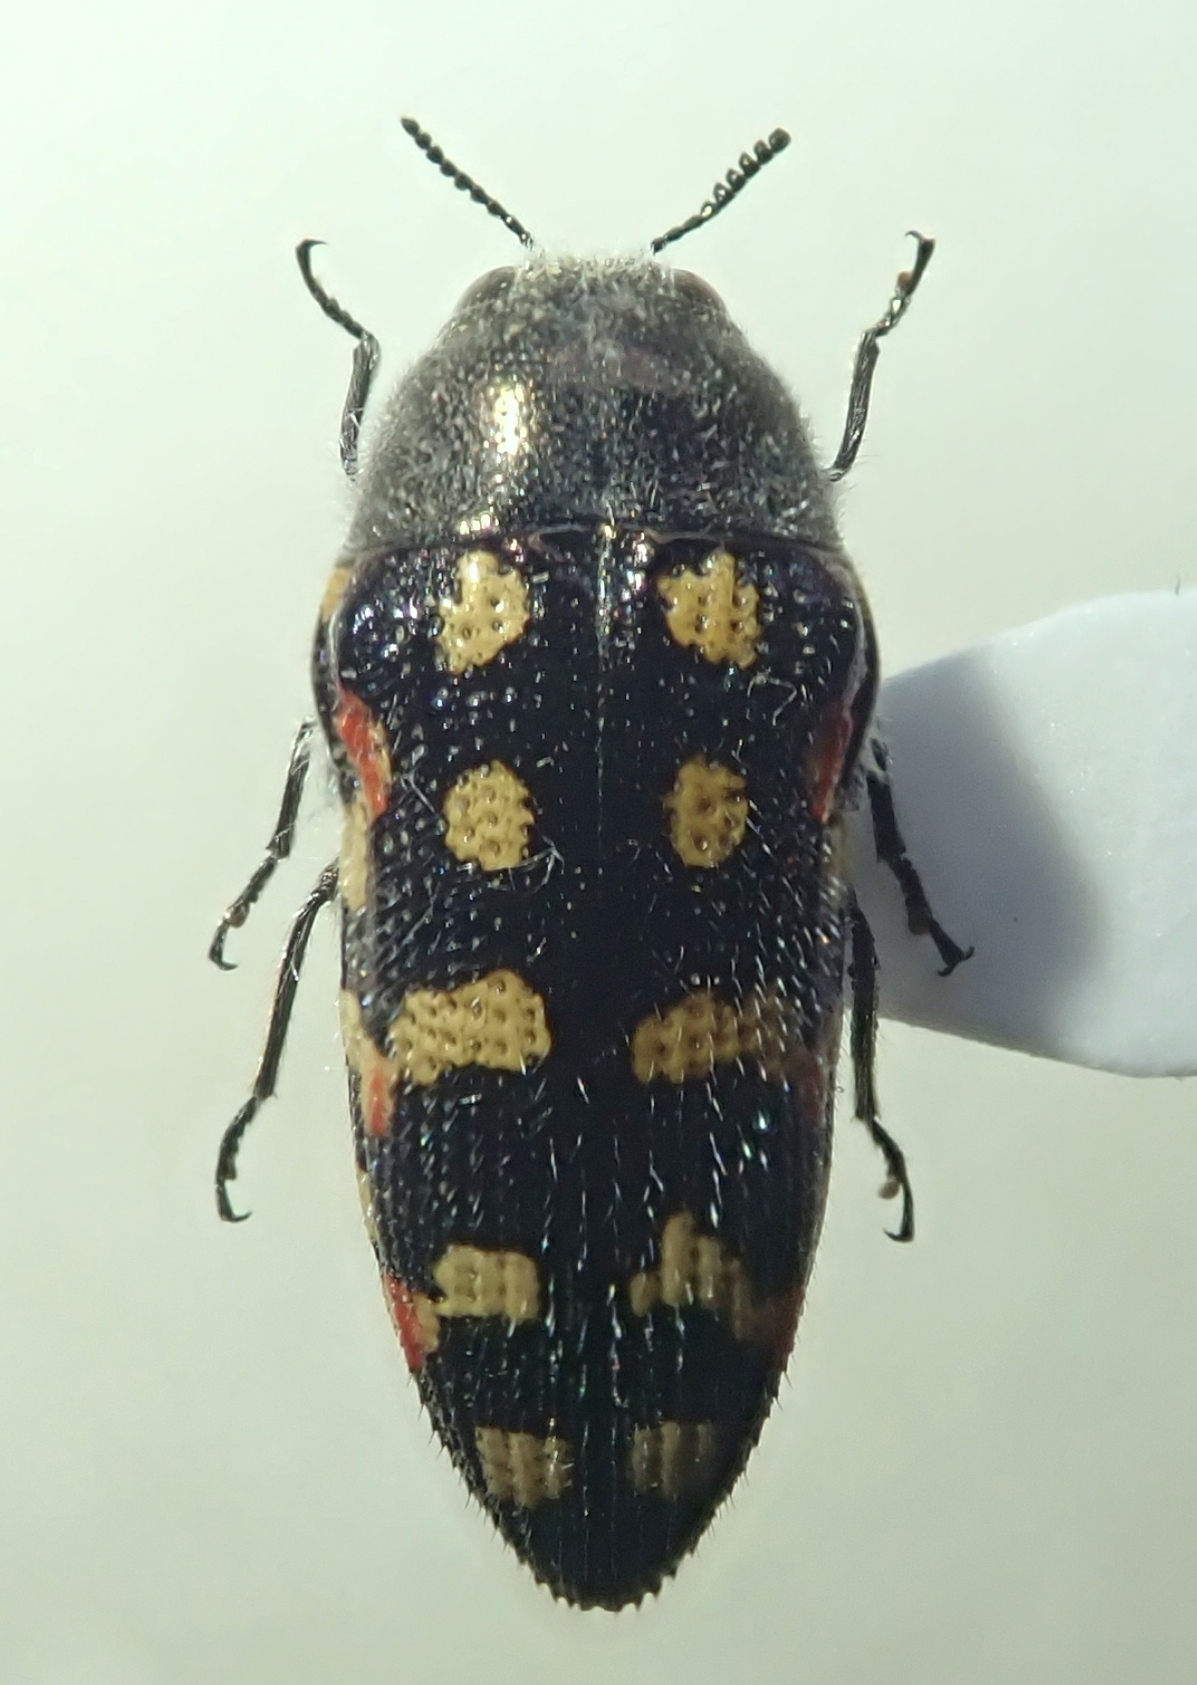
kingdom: Animalia
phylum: Arthropoda
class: Insecta
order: Coleoptera
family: Buprestidae
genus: Acmaeodera
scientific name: Acmaeodera gibbula
